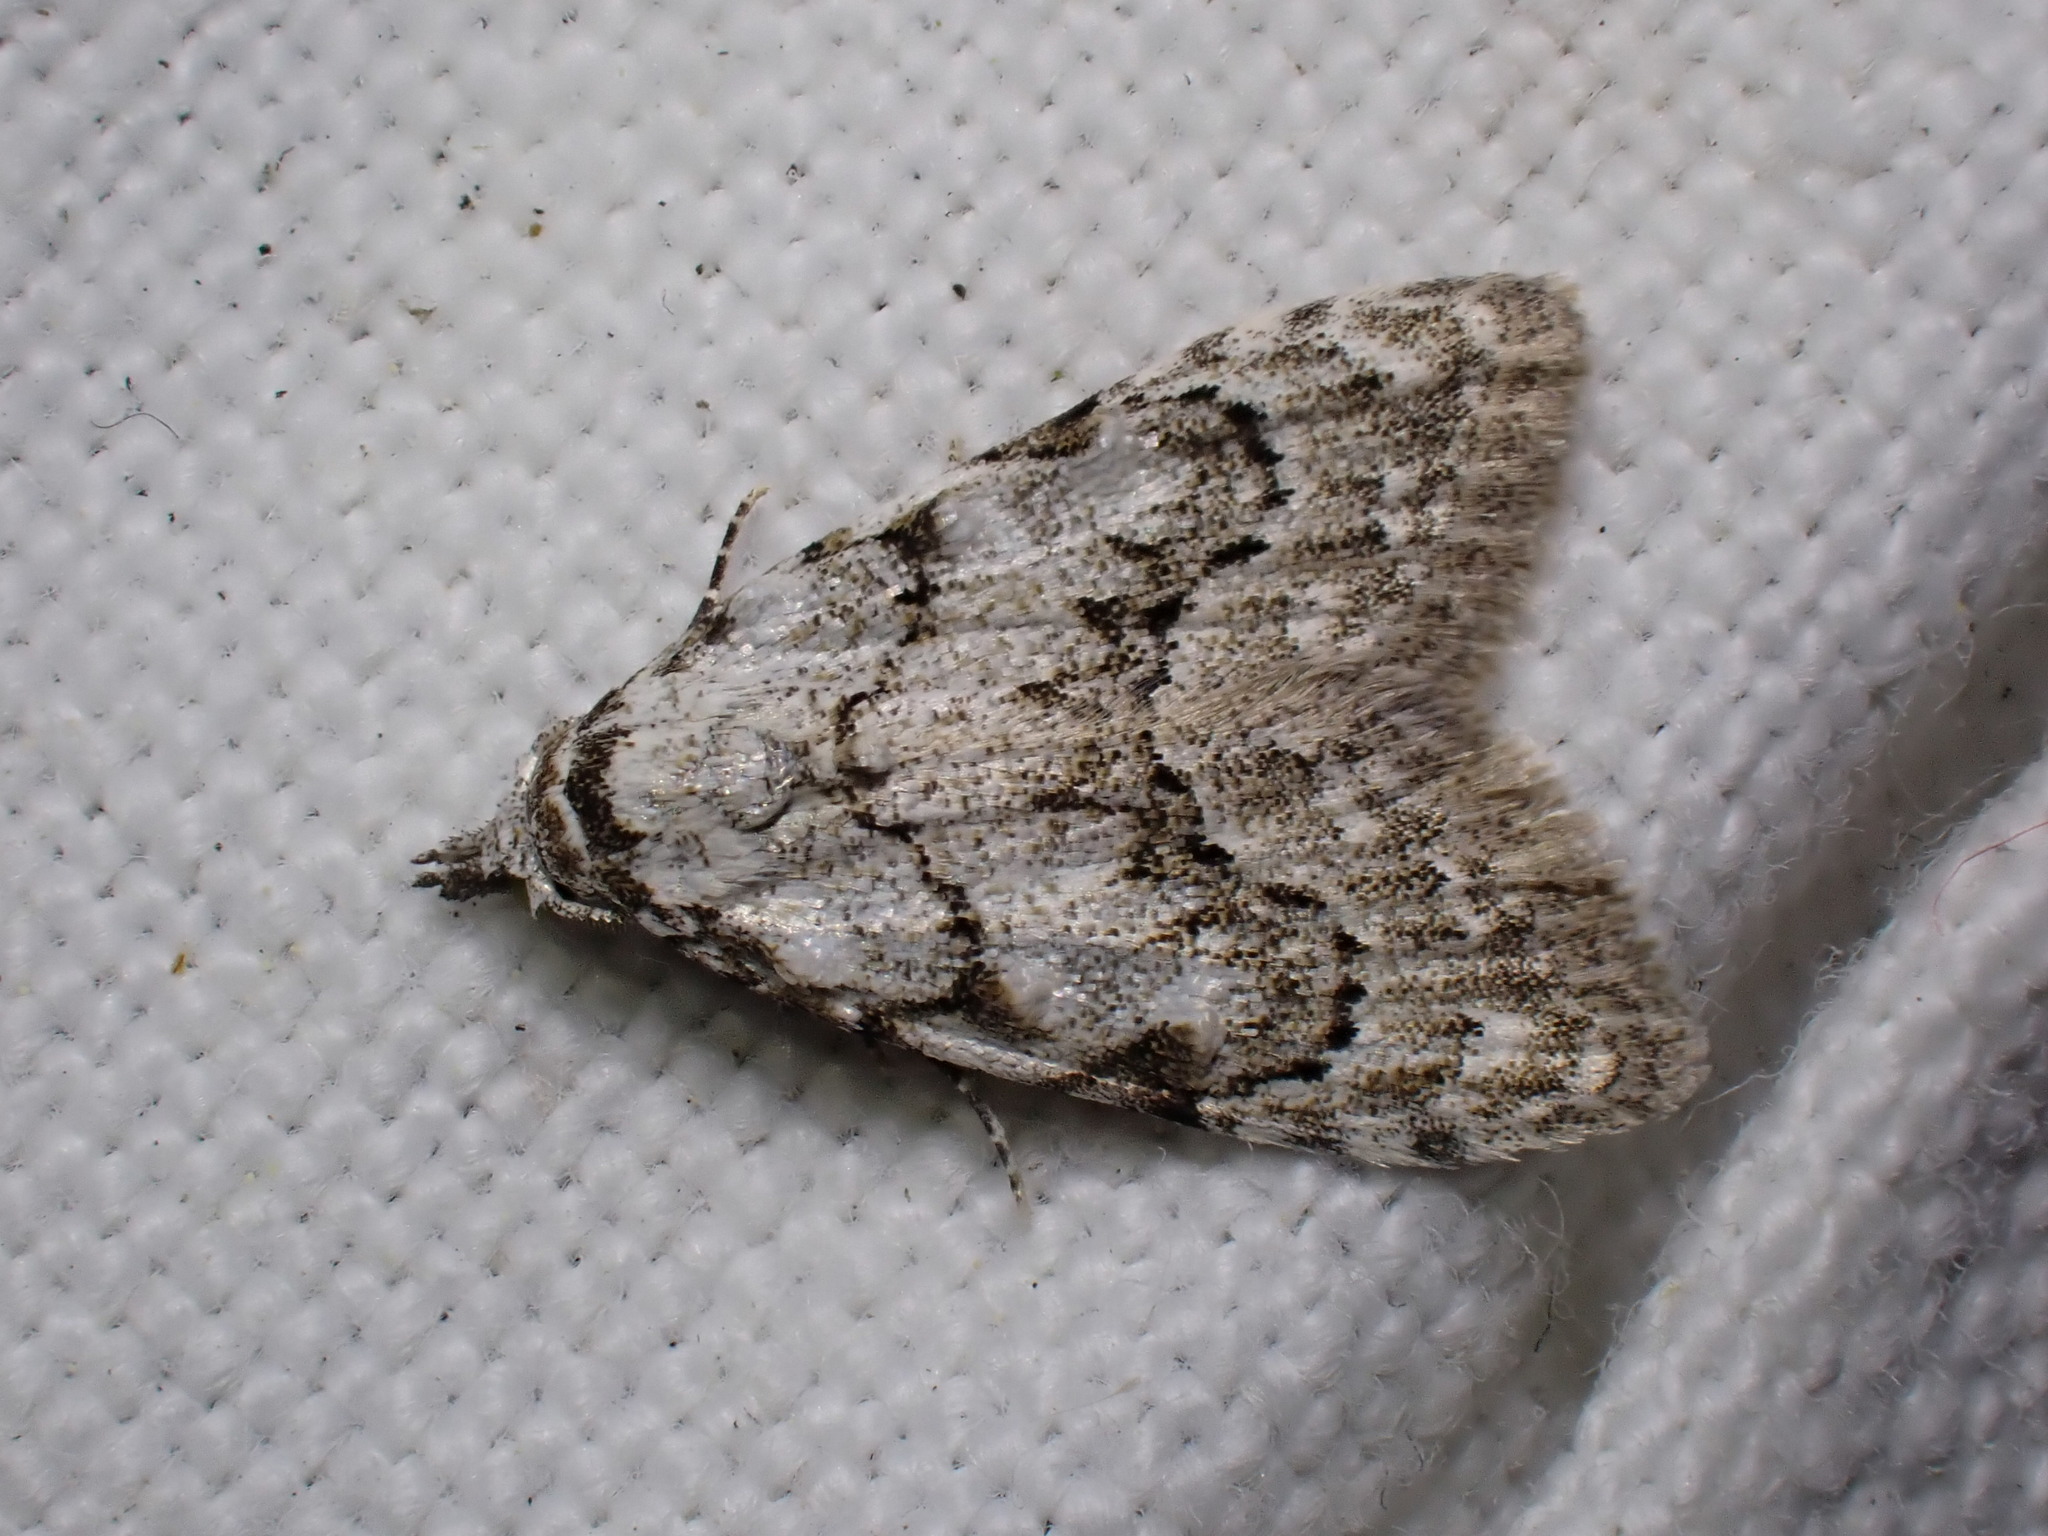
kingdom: Animalia
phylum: Arthropoda
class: Insecta
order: Lepidoptera
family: Nolidae
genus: Nola
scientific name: Nola confusalis
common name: Least black arches
